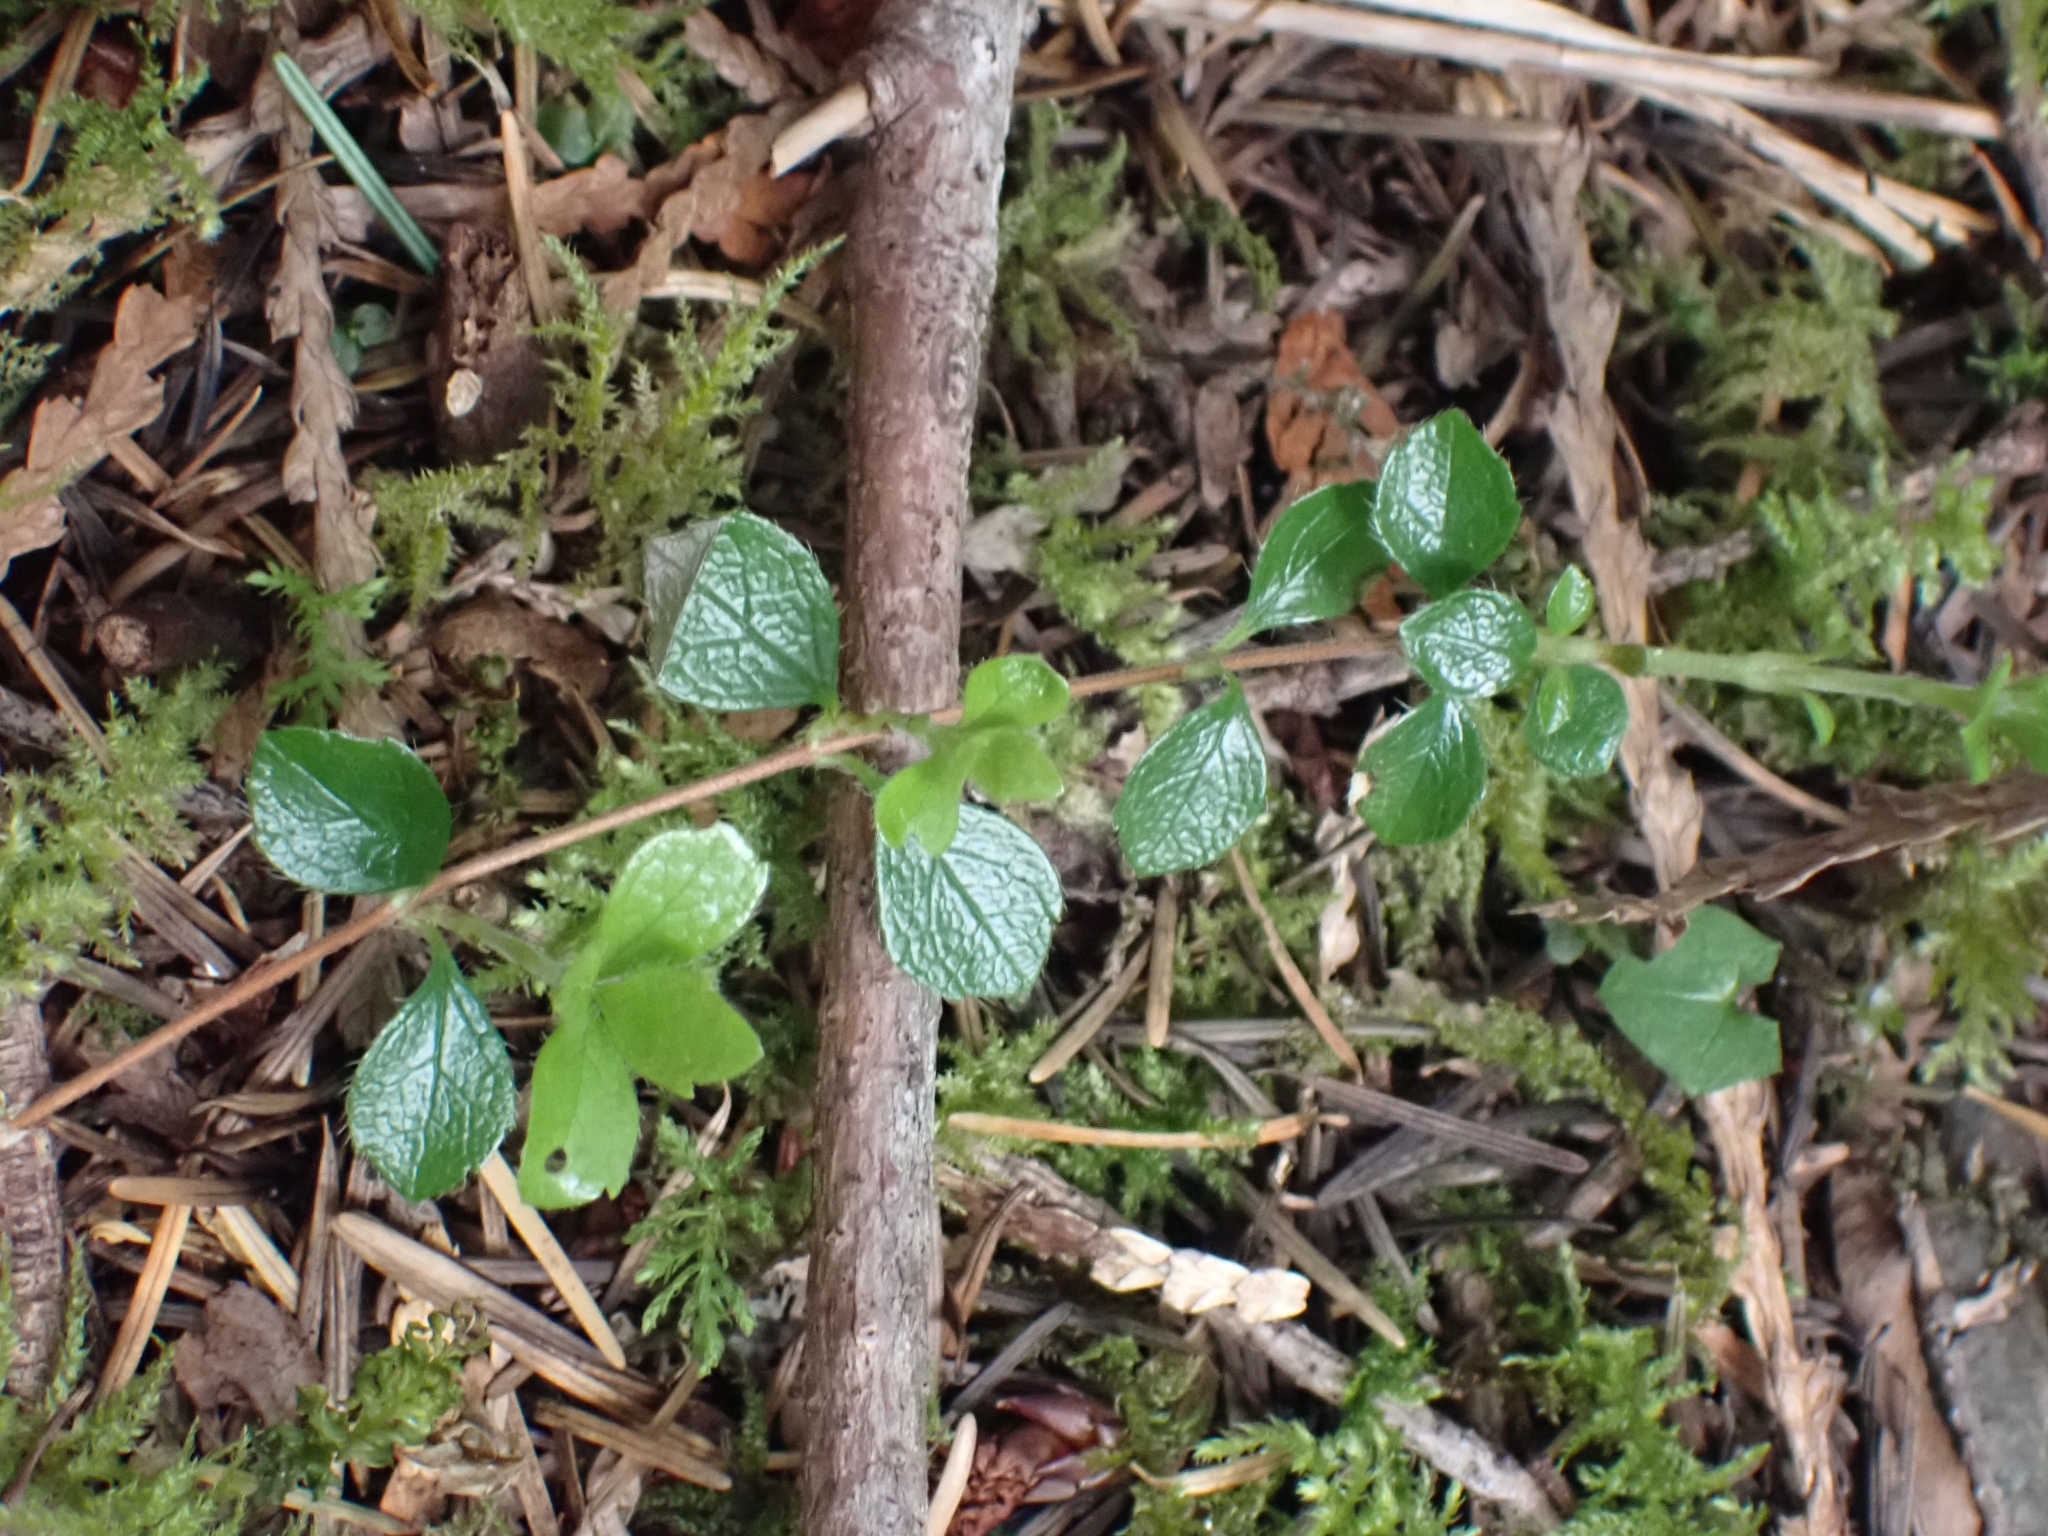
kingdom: Plantae
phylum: Tracheophyta
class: Magnoliopsida
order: Dipsacales
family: Caprifoliaceae
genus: Linnaea
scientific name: Linnaea borealis
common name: Twinflower
